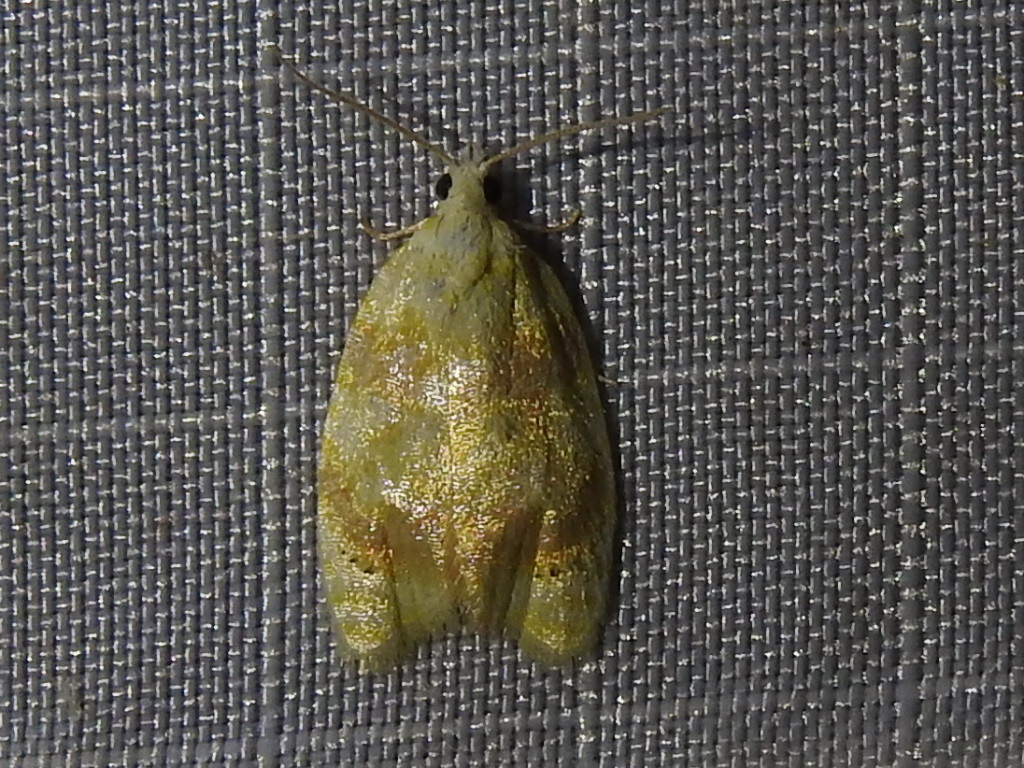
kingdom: Animalia
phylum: Arthropoda
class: Insecta
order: Lepidoptera
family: Tortricidae
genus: Acleris
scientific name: Acleris semipurpurana
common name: Oak leaftier moth
